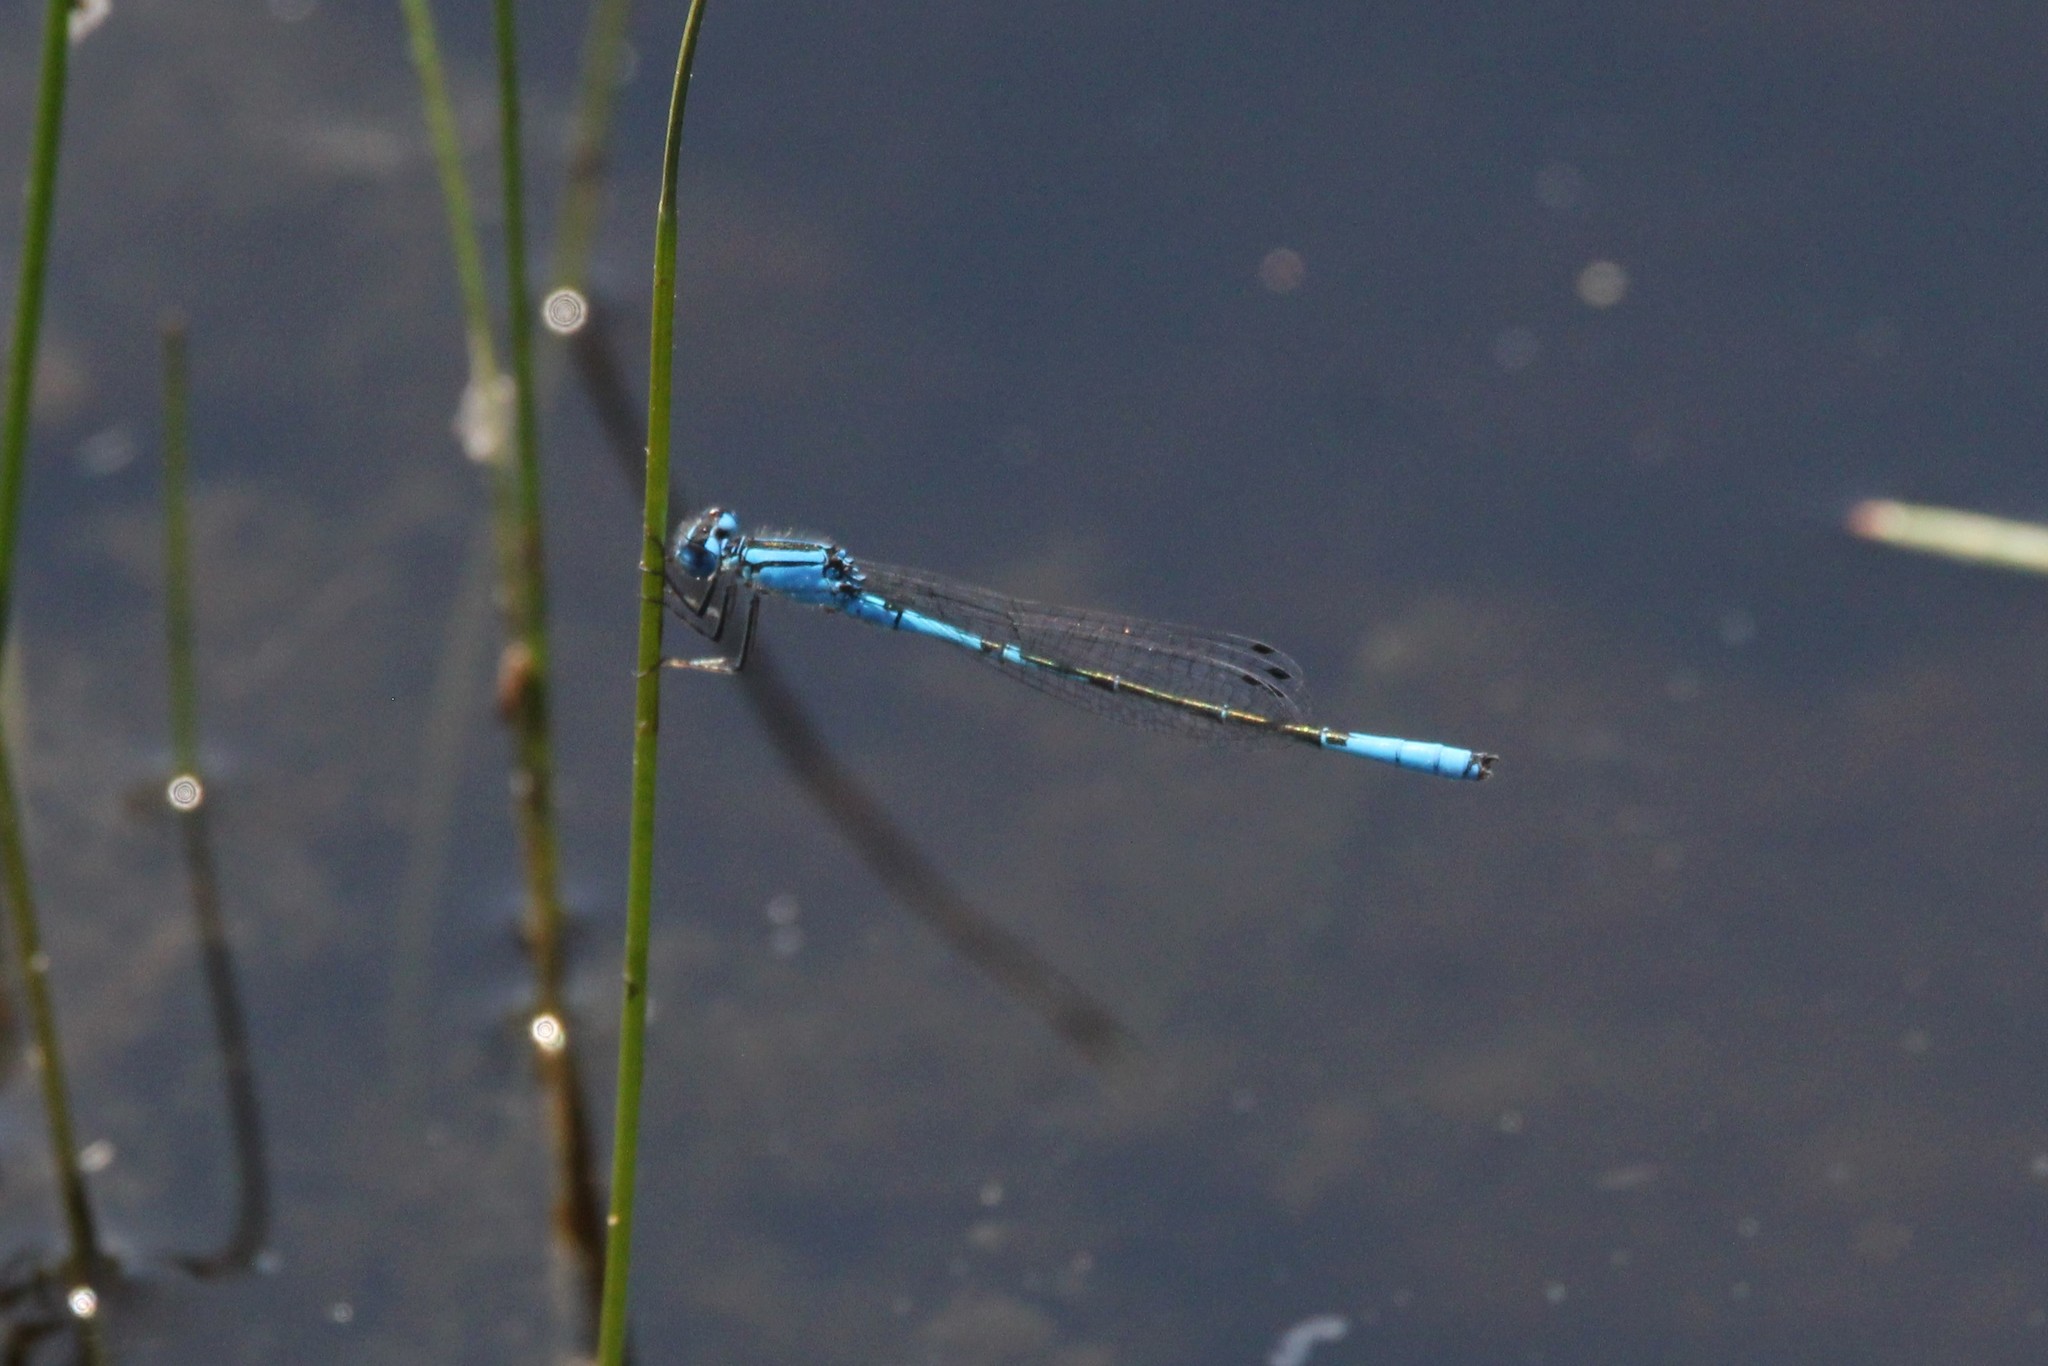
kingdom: Animalia
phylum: Arthropoda
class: Insecta
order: Odonata
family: Coenagrionidae
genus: Enallagma
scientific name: Enallagma aspersum
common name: Azure bluet
